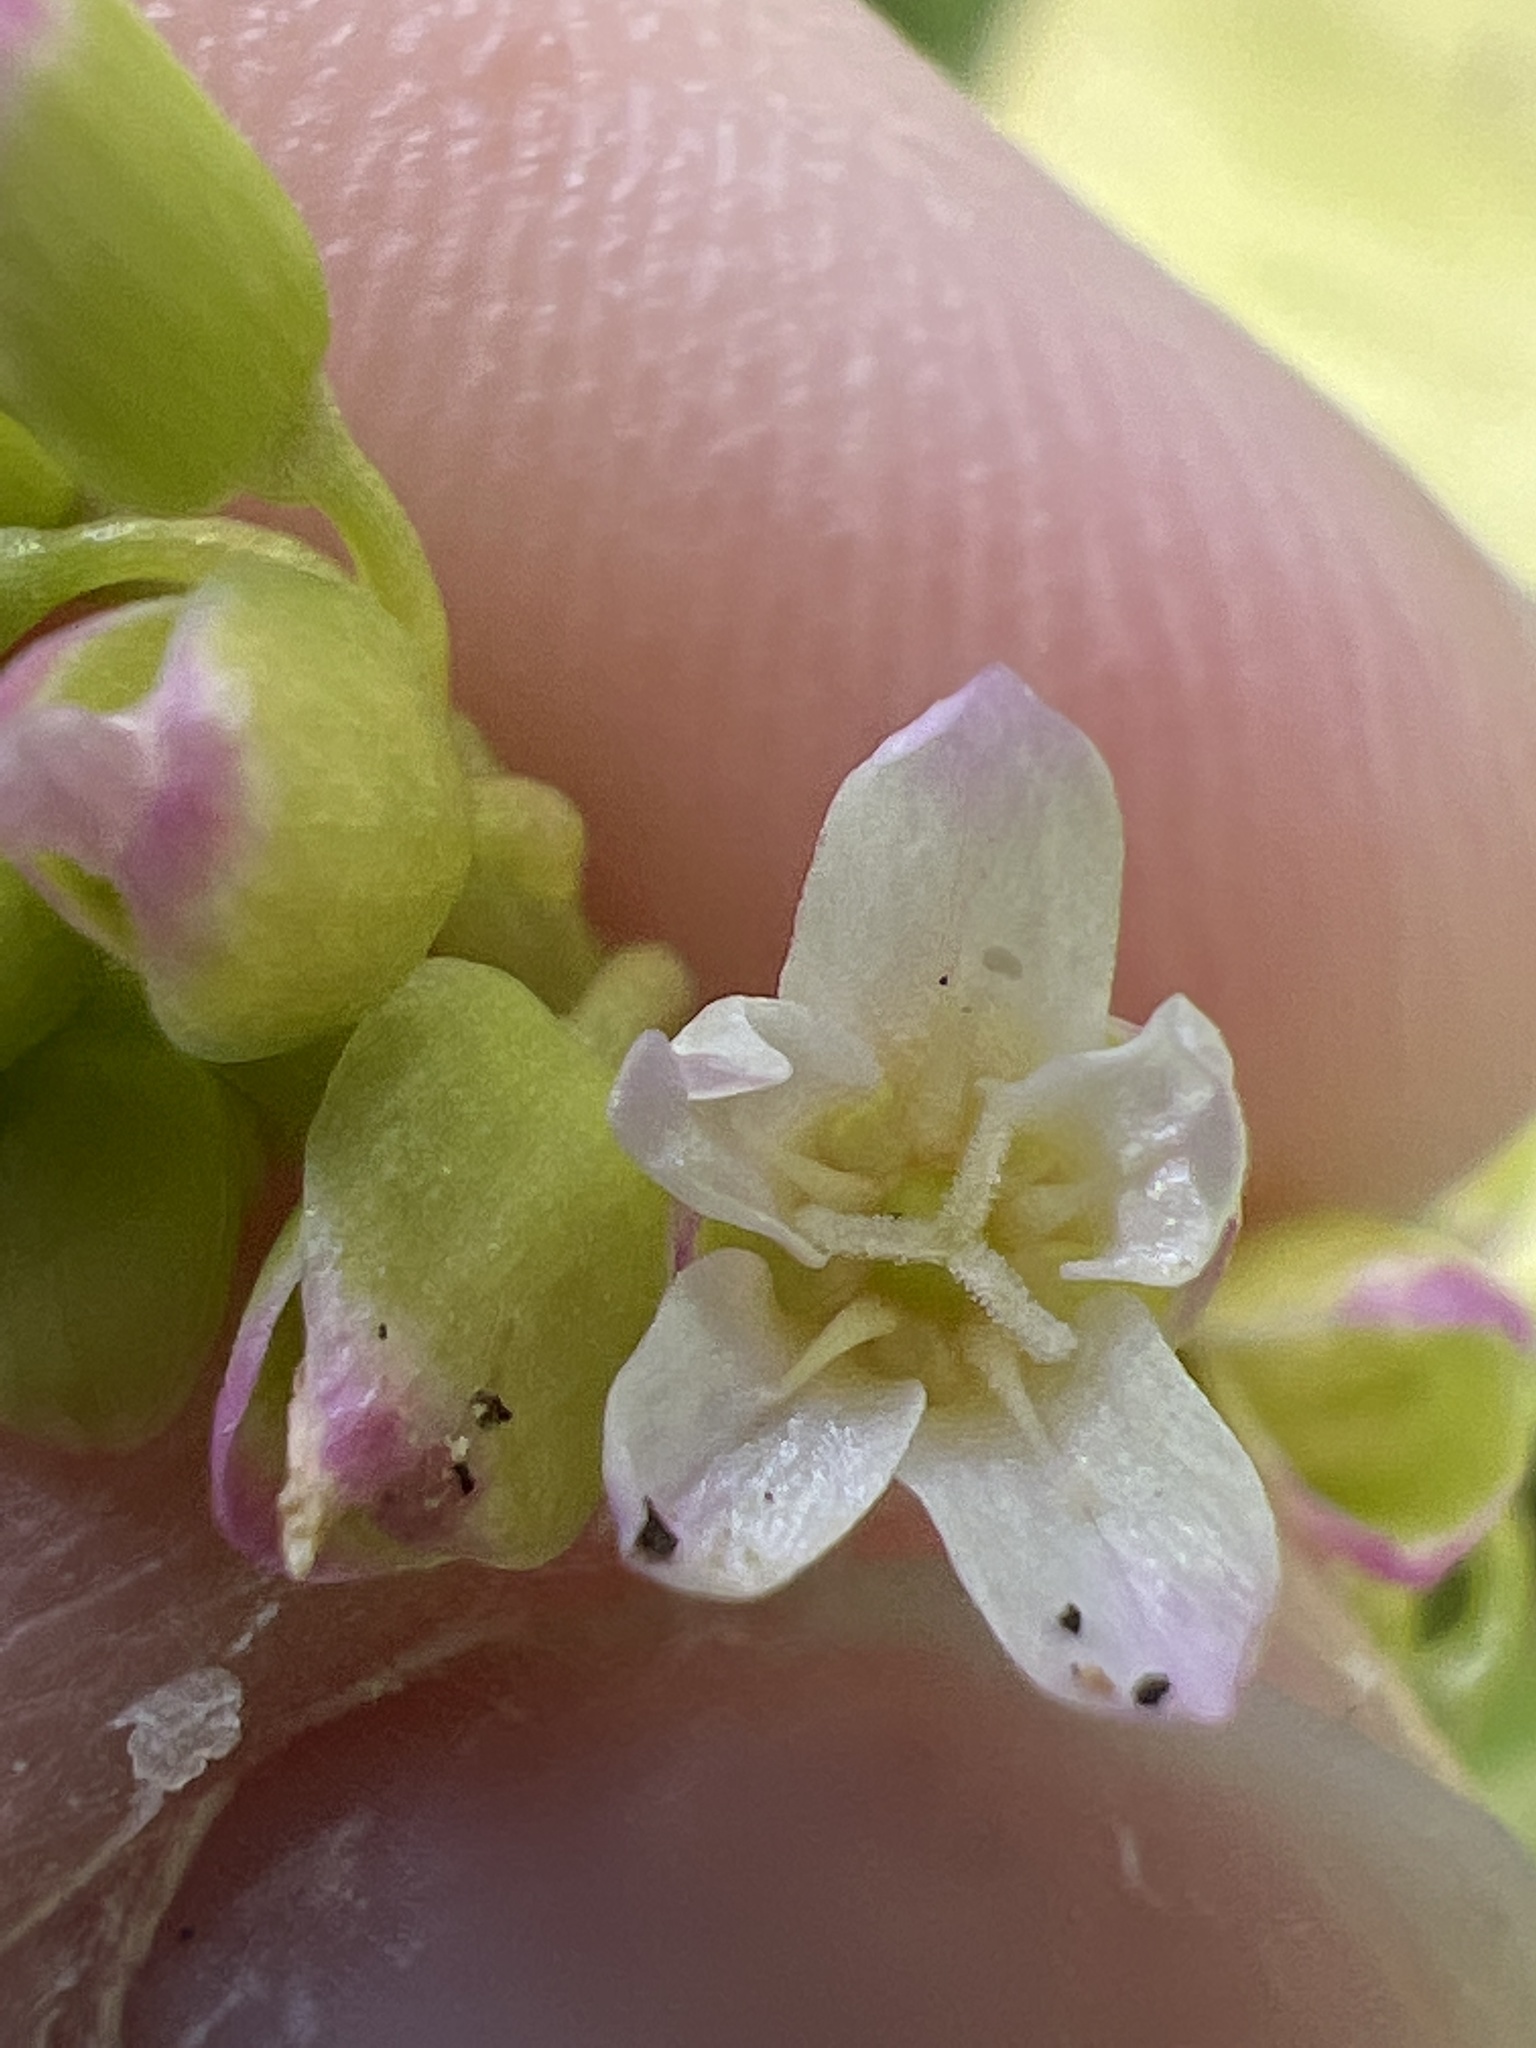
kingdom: Plantae
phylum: Tracheophyta
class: Magnoliopsida
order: Caryophyllales
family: Montiaceae
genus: Claytonia
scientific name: Claytonia perfoliata
